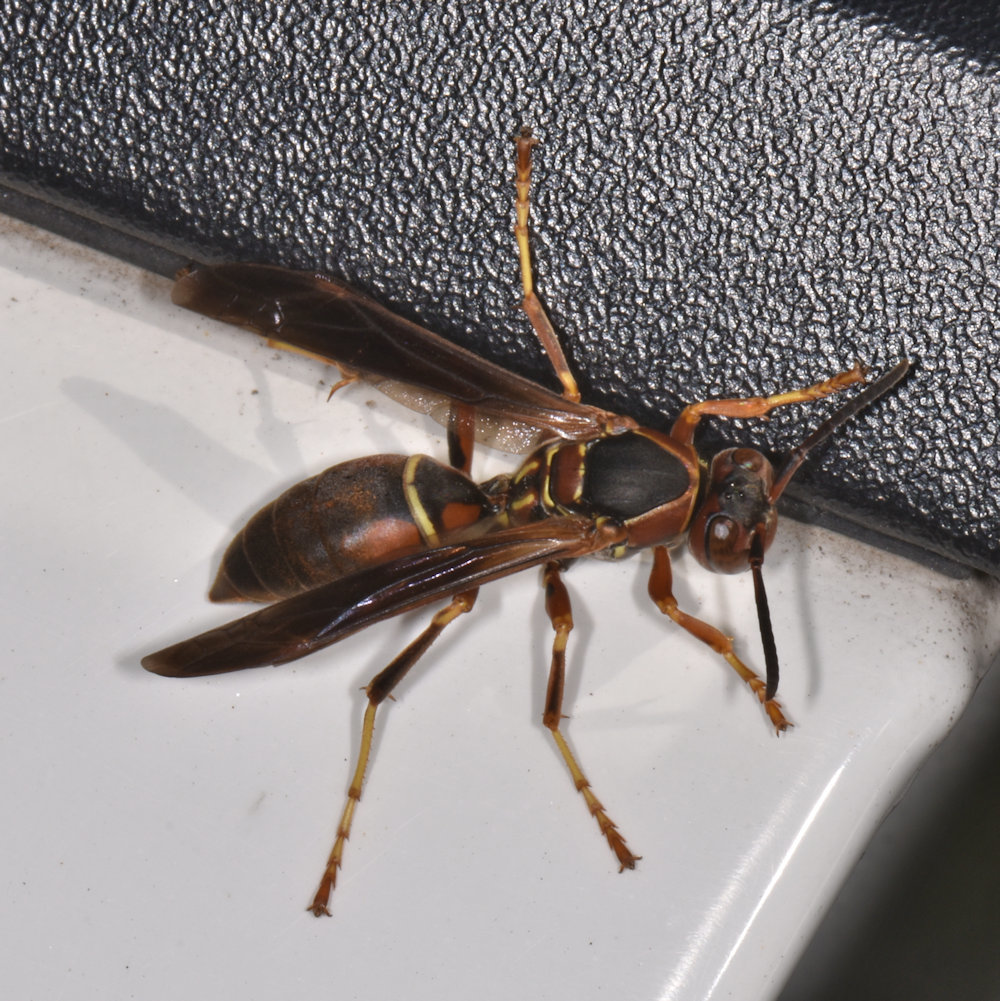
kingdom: Animalia
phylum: Arthropoda
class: Insecta
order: Hymenoptera
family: Eumenidae
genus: Polistes
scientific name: Polistes fuscatus
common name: Dark paper wasp
